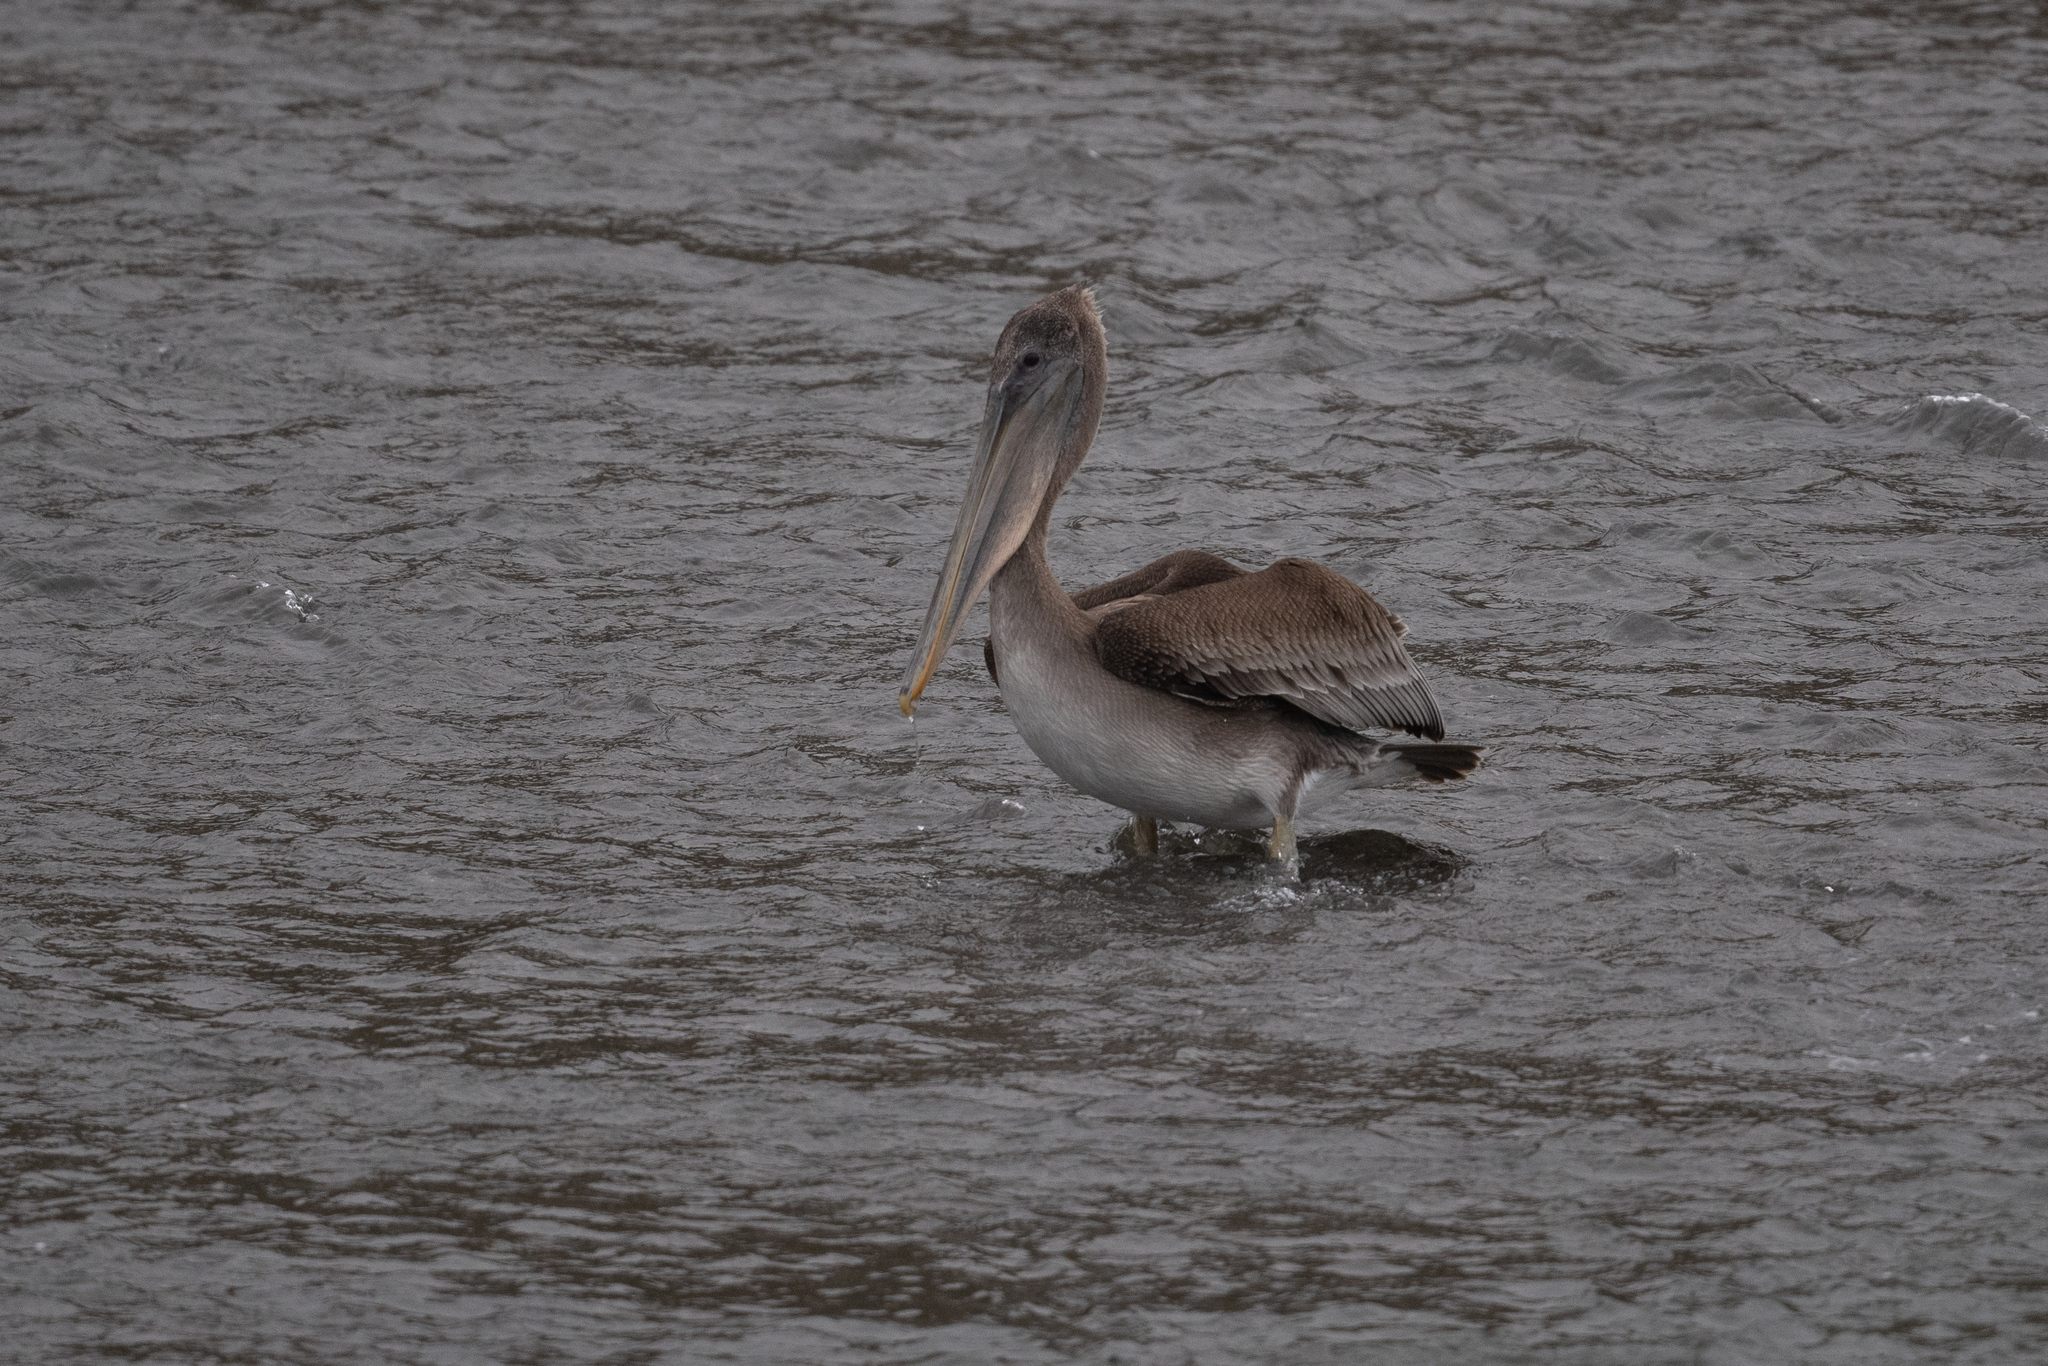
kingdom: Animalia
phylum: Chordata
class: Aves
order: Pelecaniformes
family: Pelecanidae
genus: Pelecanus
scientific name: Pelecanus occidentalis
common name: Brown pelican
